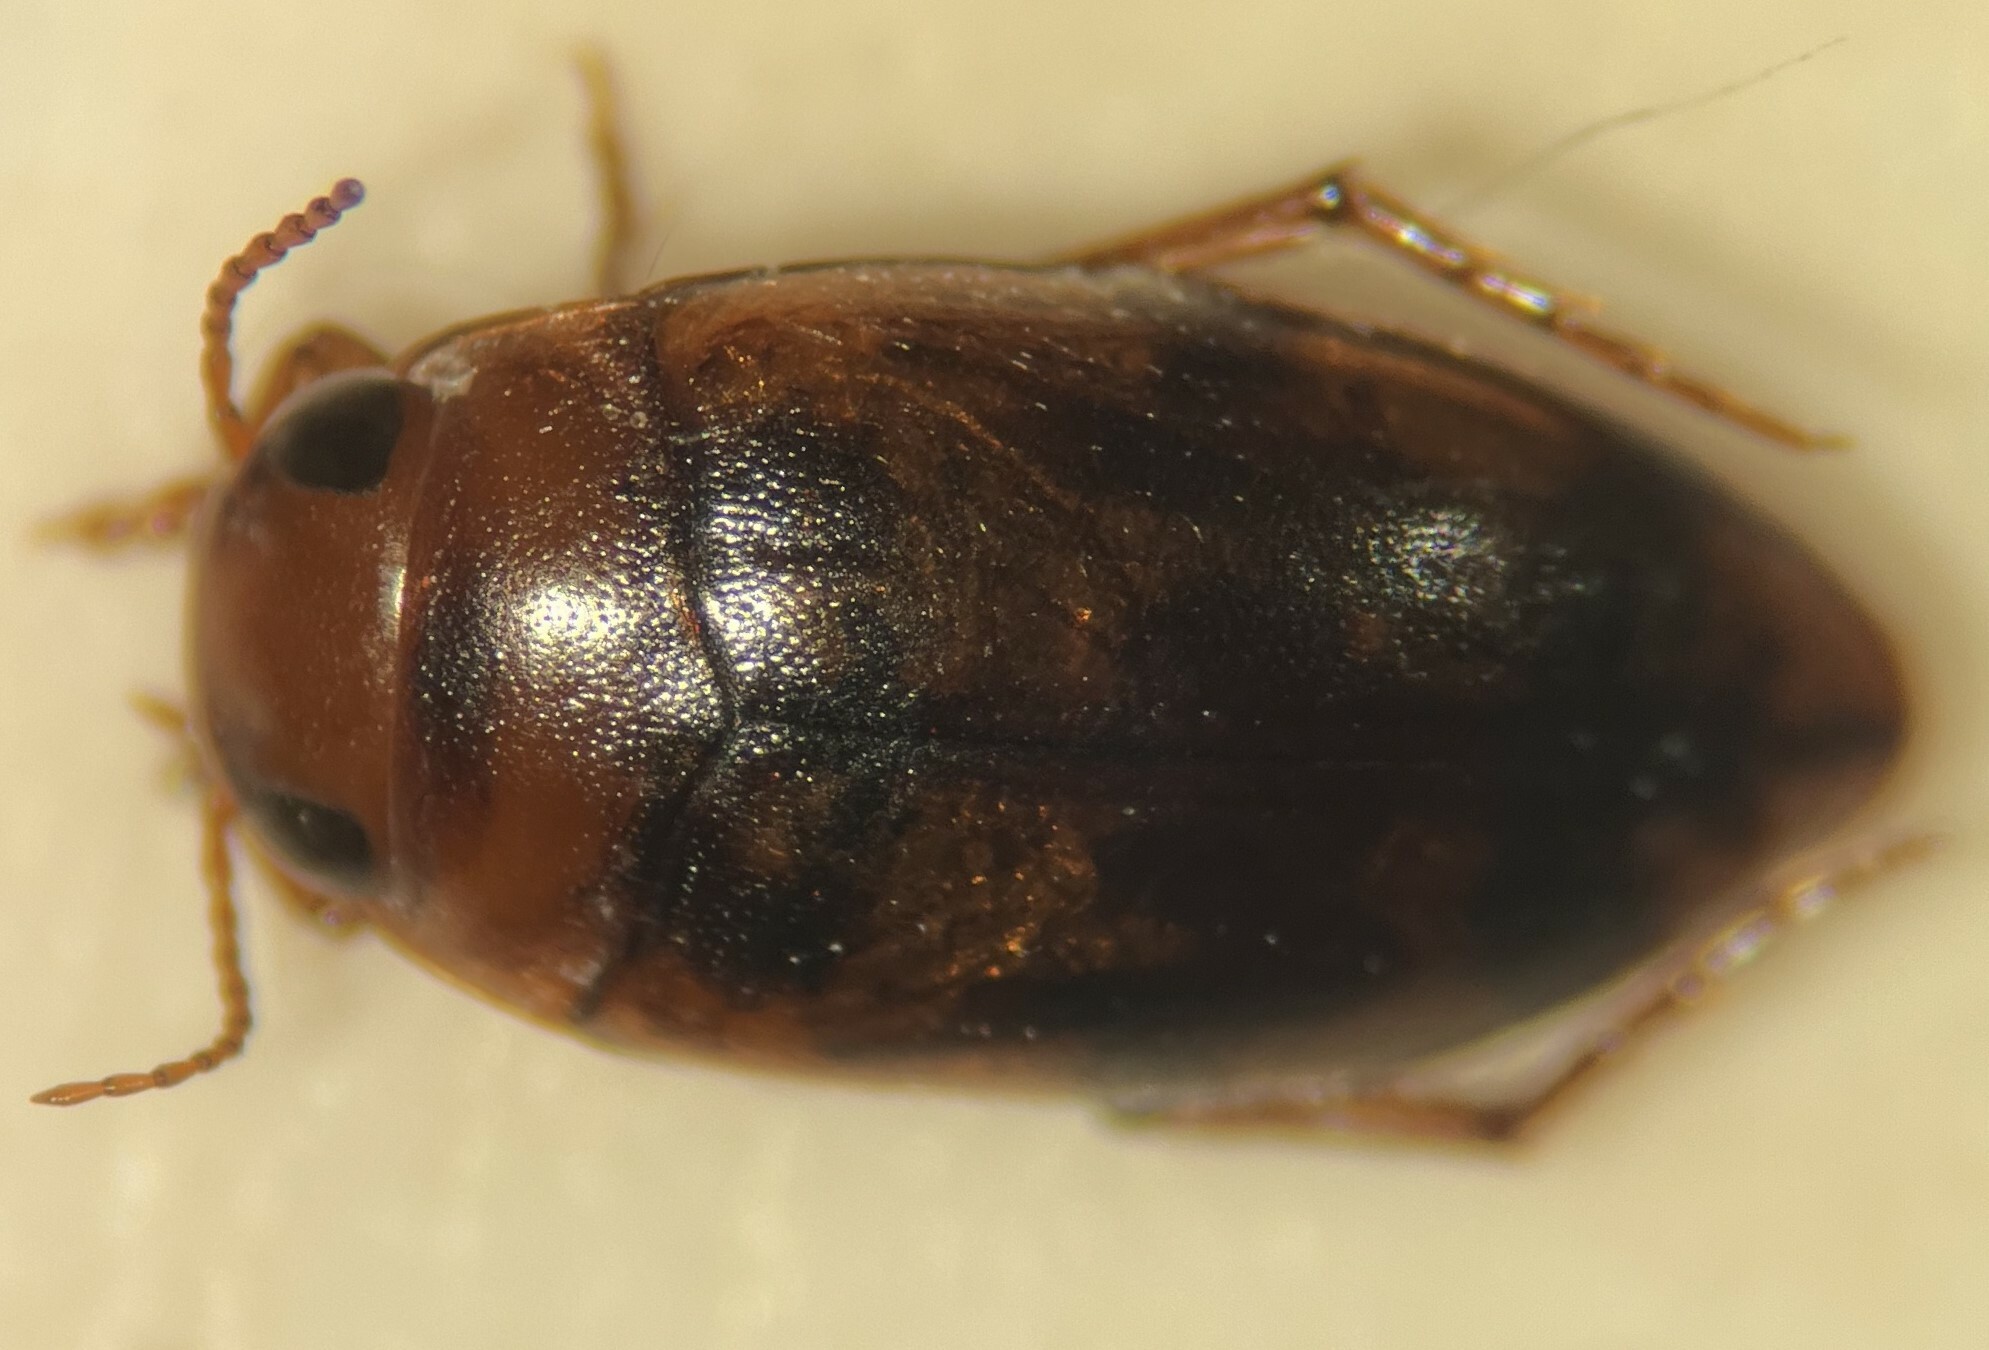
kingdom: Animalia
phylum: Arthropoda
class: Insecta
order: Coleoptera
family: Dytiscidae
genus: Heterosternuta
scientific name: Heterosternuta diversicornis
